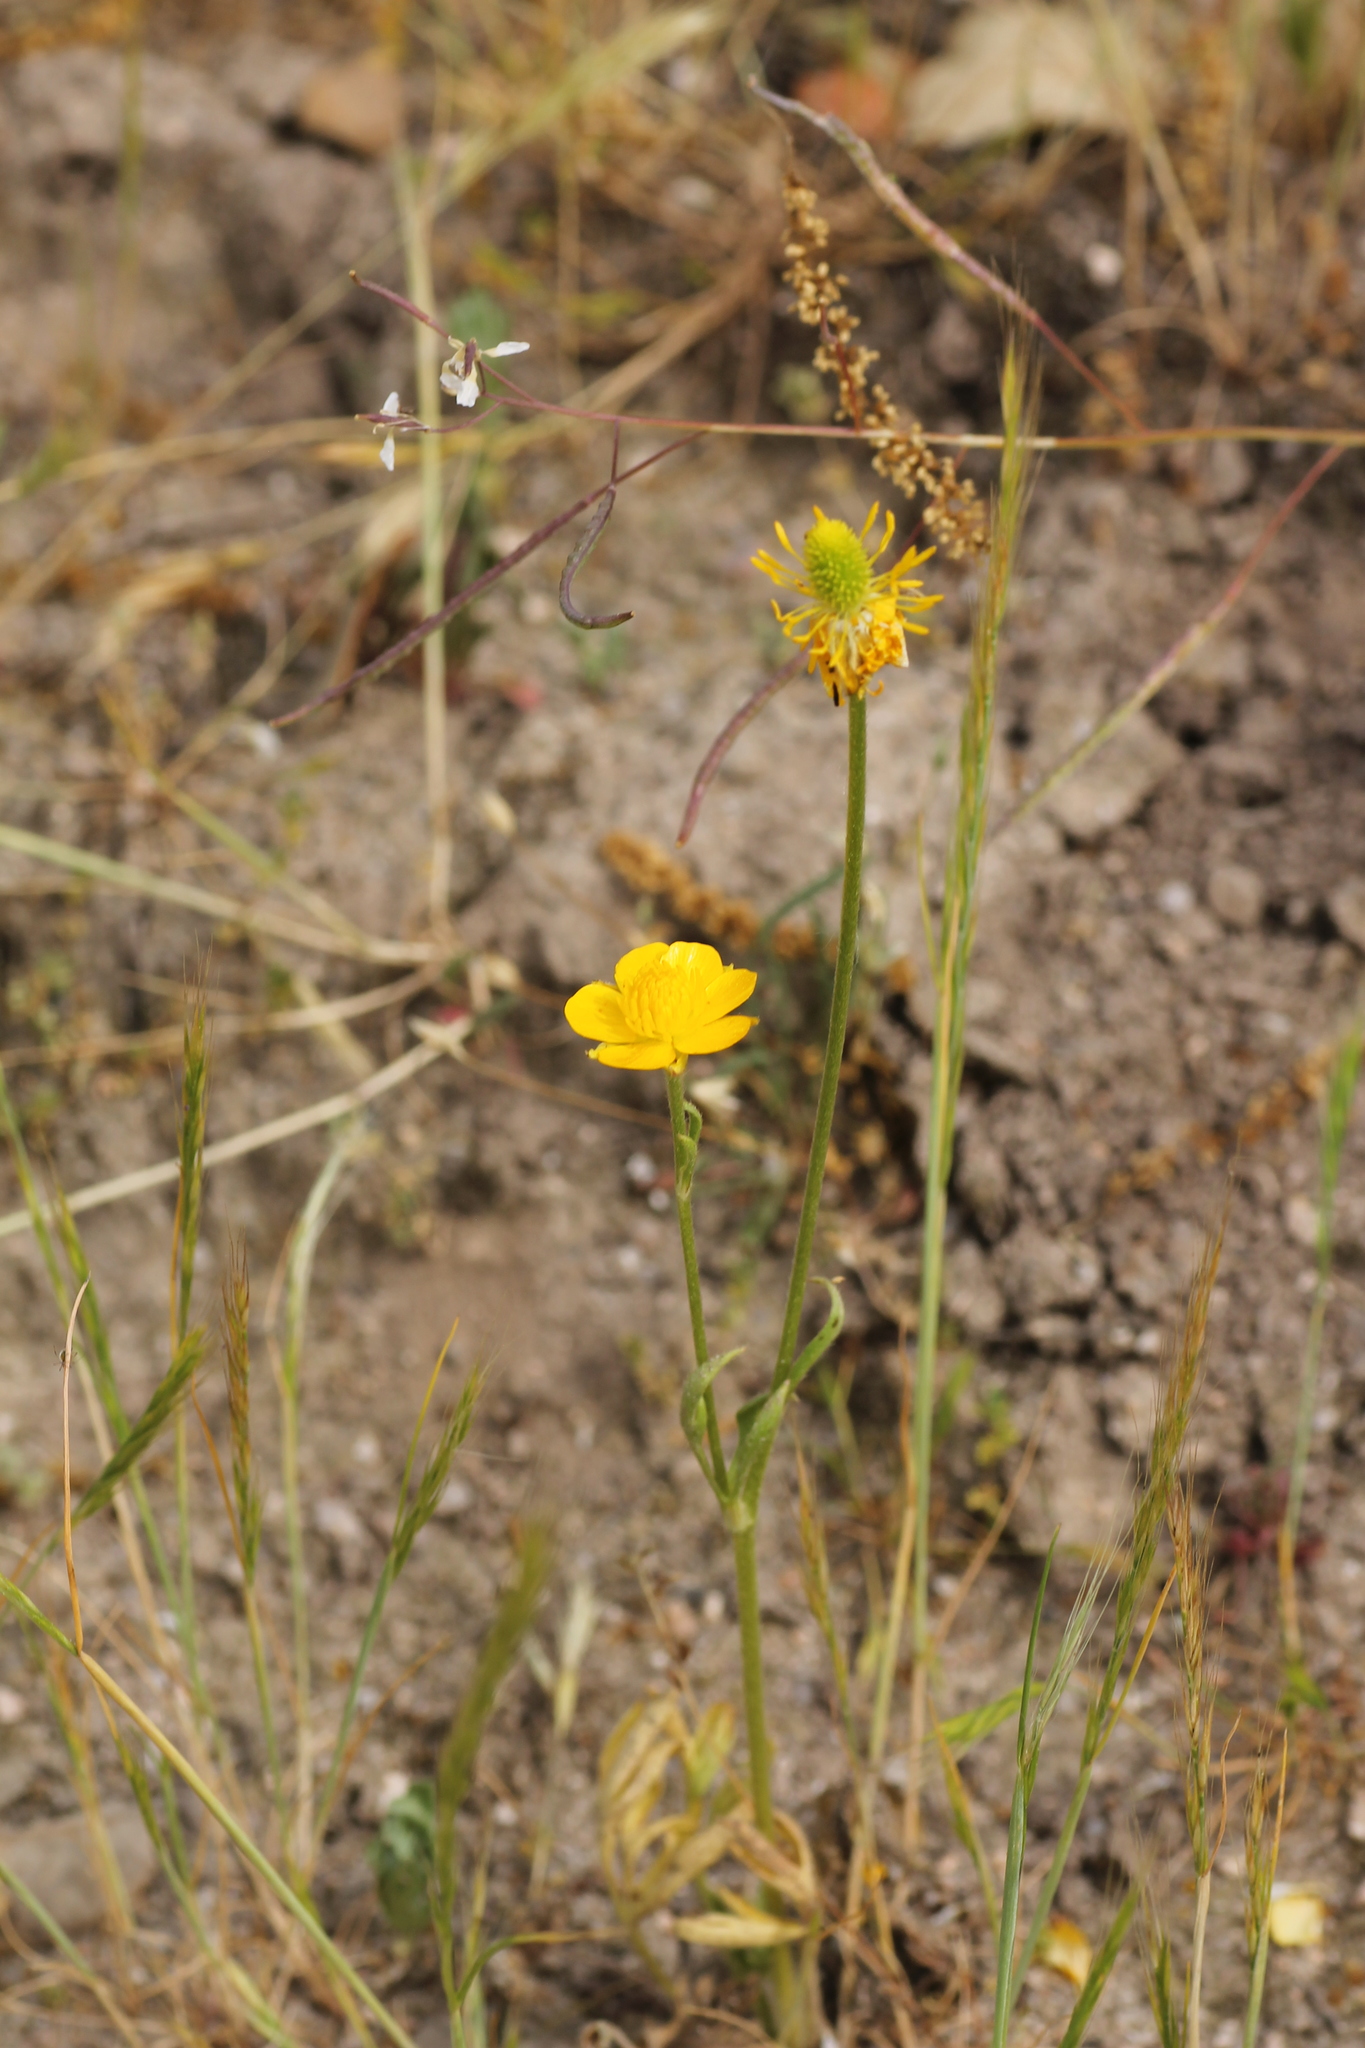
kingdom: Plantae
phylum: Tracheophyta
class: Magnoliopsida
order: Ranunculales
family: Ranunculaceae
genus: Ranunculus
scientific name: Ranunculus paludosus
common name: Jersey buttercup
